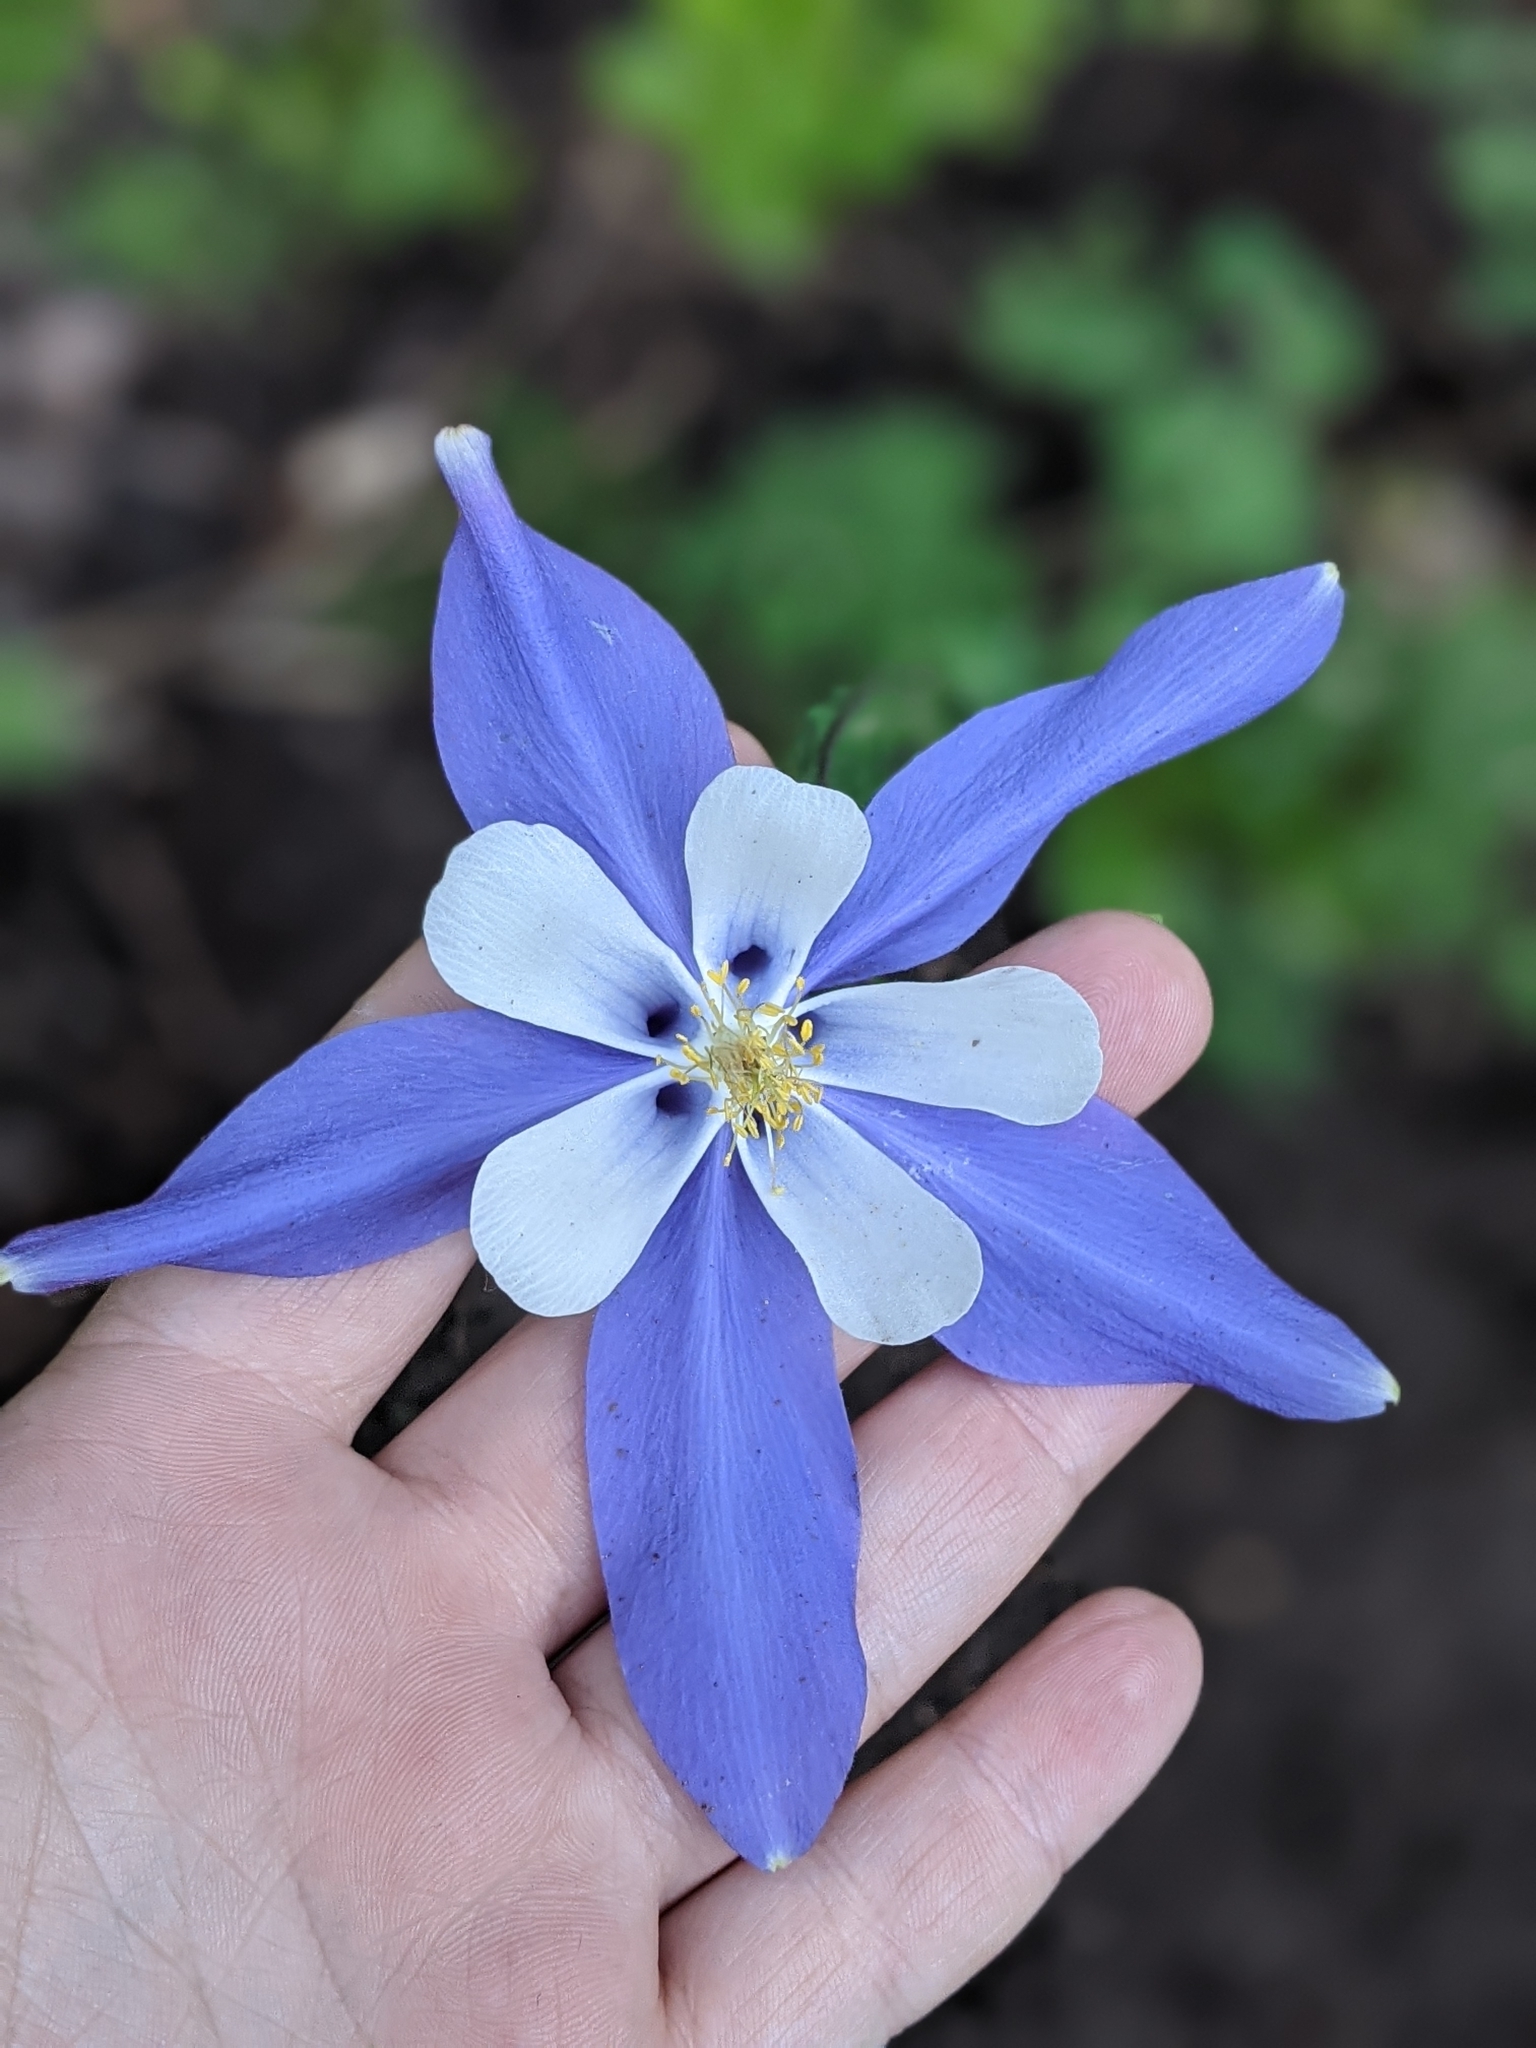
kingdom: Plantae
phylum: Tracheophyta
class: Magnoliopsida
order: Ranunculales
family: Ranunculaceae
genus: Aquilegia
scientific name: Aquilegia coerulea
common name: Rocky mountain columbine
